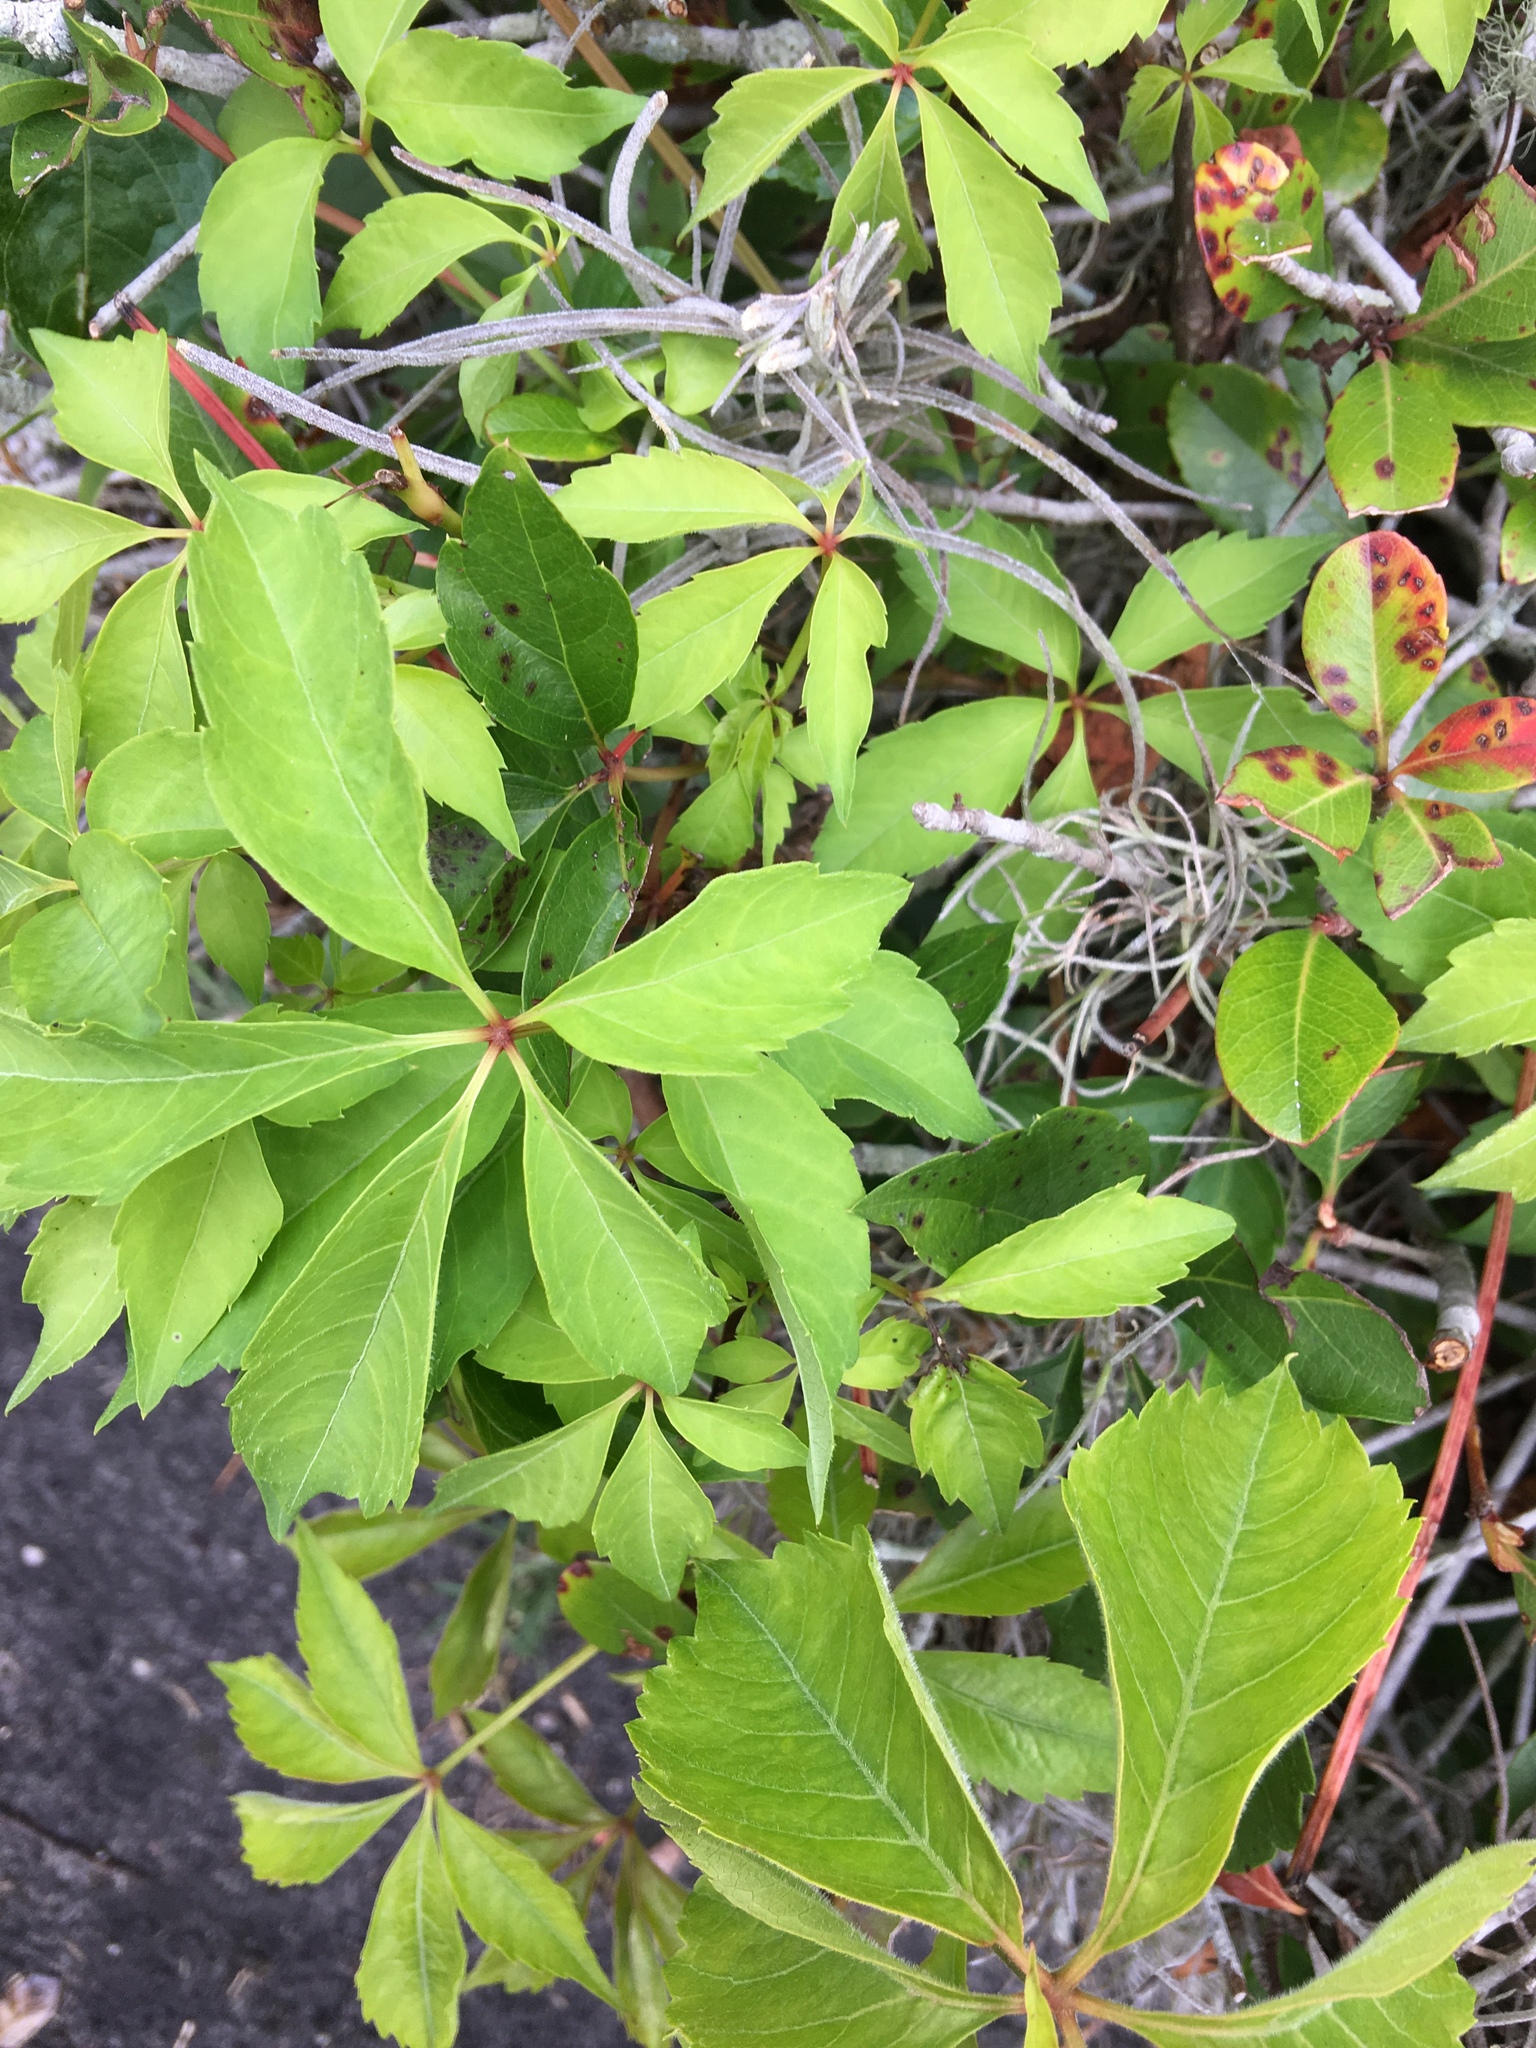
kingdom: Plantae
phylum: Tracheophyta
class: Magnoliopsida
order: Vitales
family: Vitaceae
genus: Parthenocissus
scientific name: Parthenocissus quinquefolia
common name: Virginia-creeper
